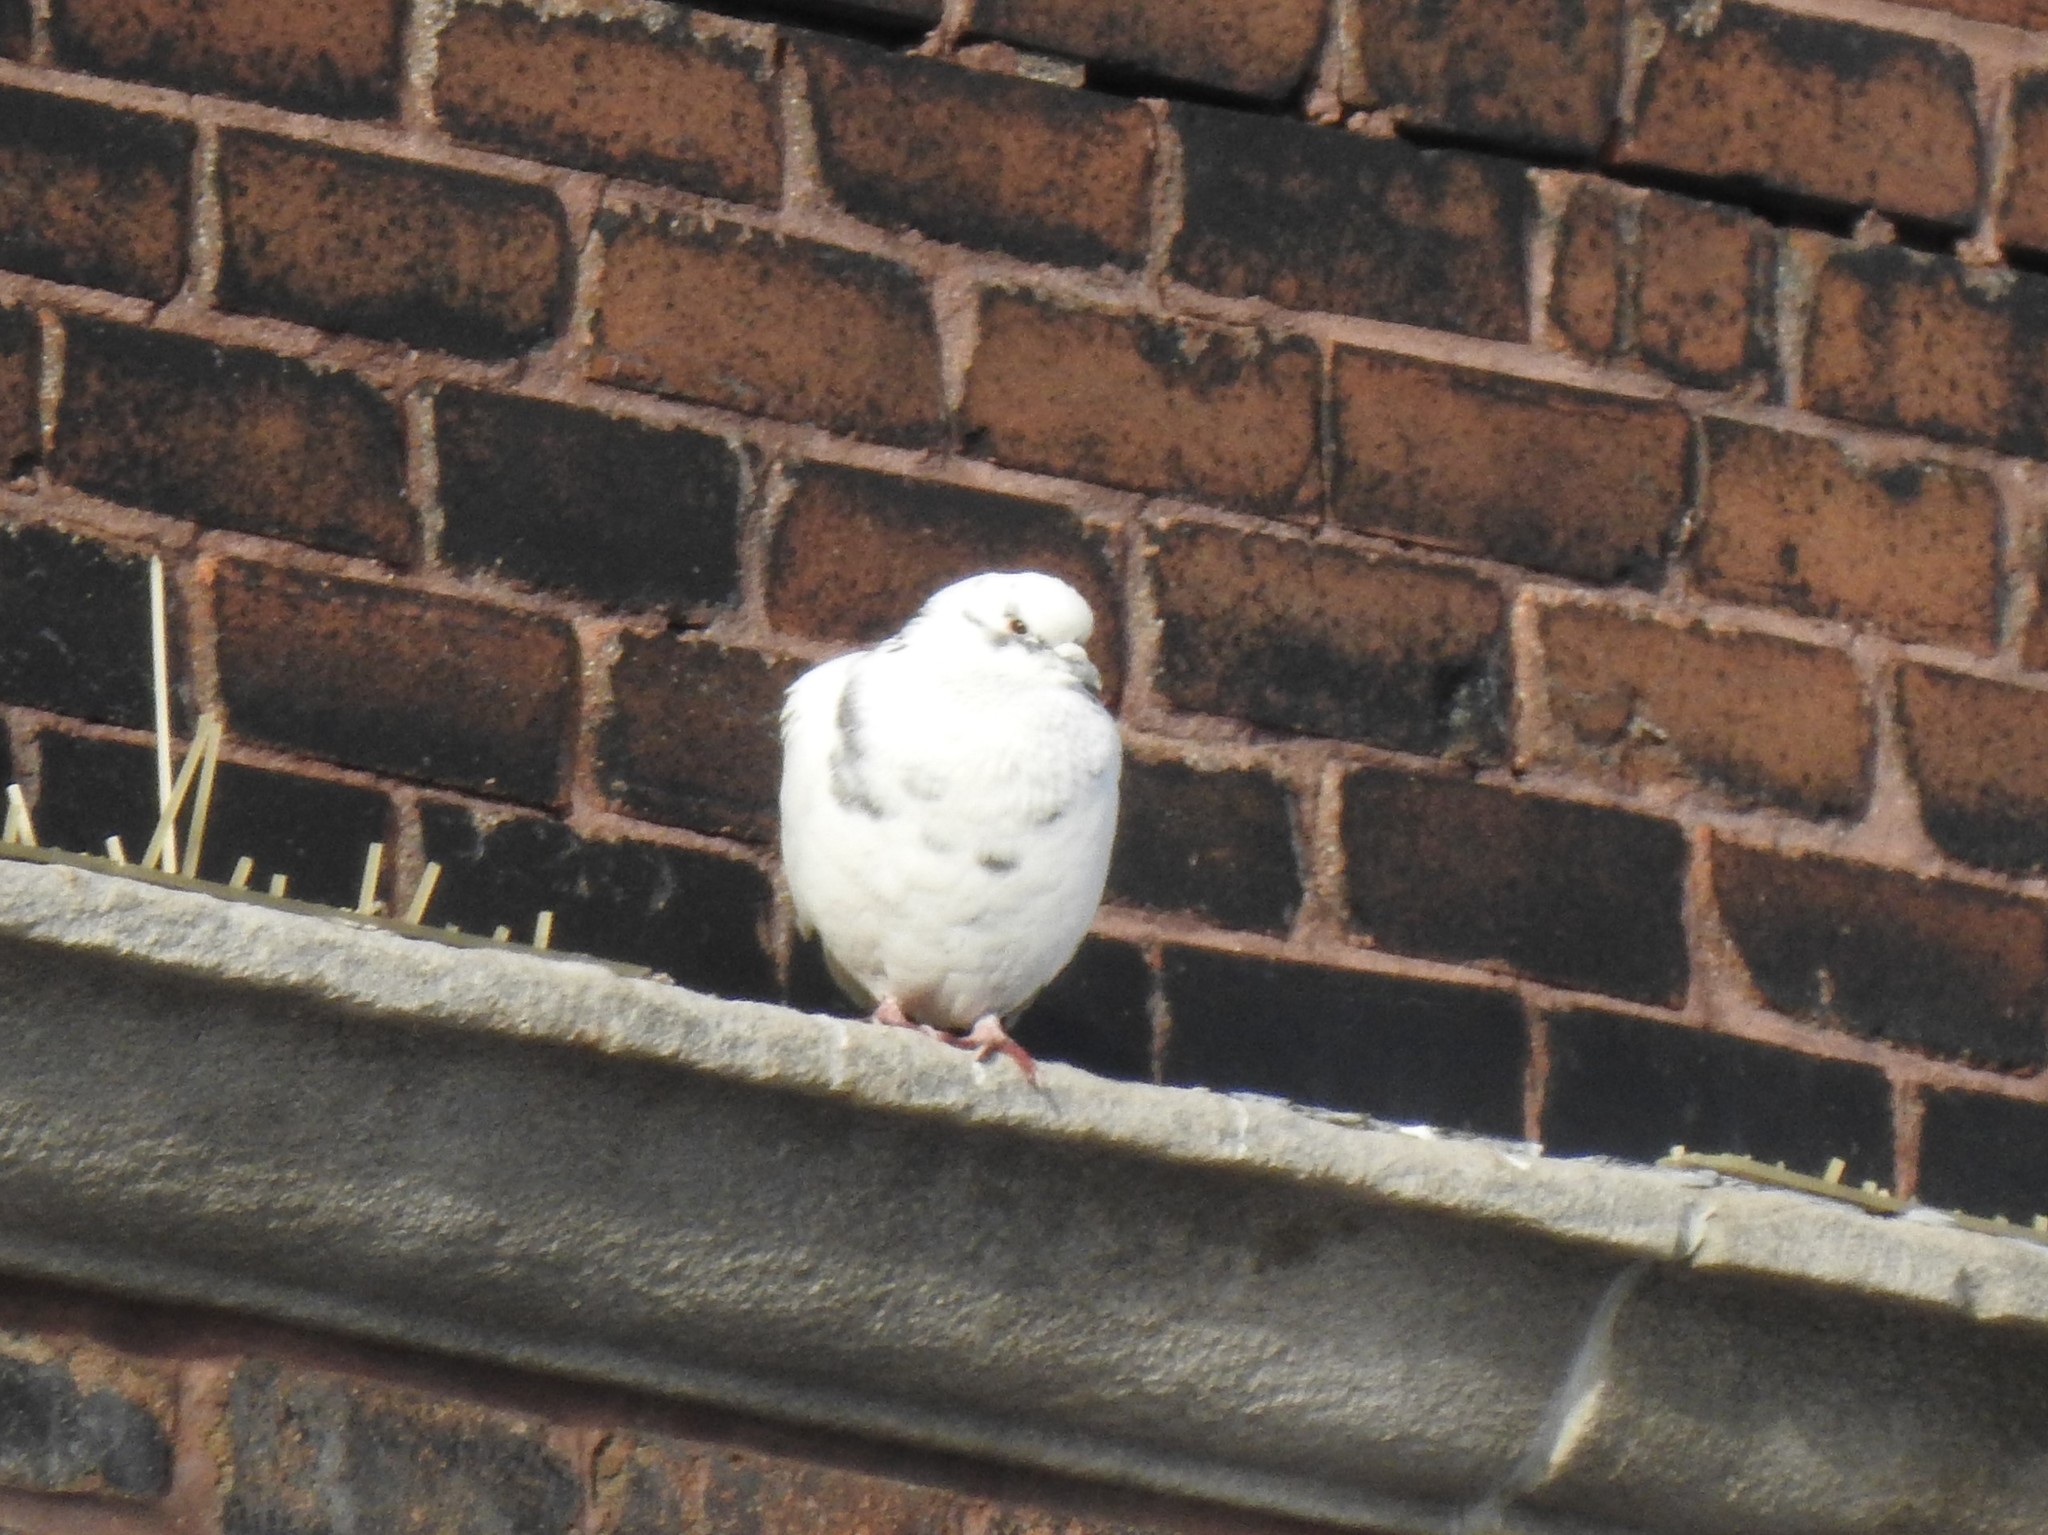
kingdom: Animalia
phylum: Chordata
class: Aves
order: Columbiformes
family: Columbidae
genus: Columba
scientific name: Columba livia
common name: Rock pigeon
